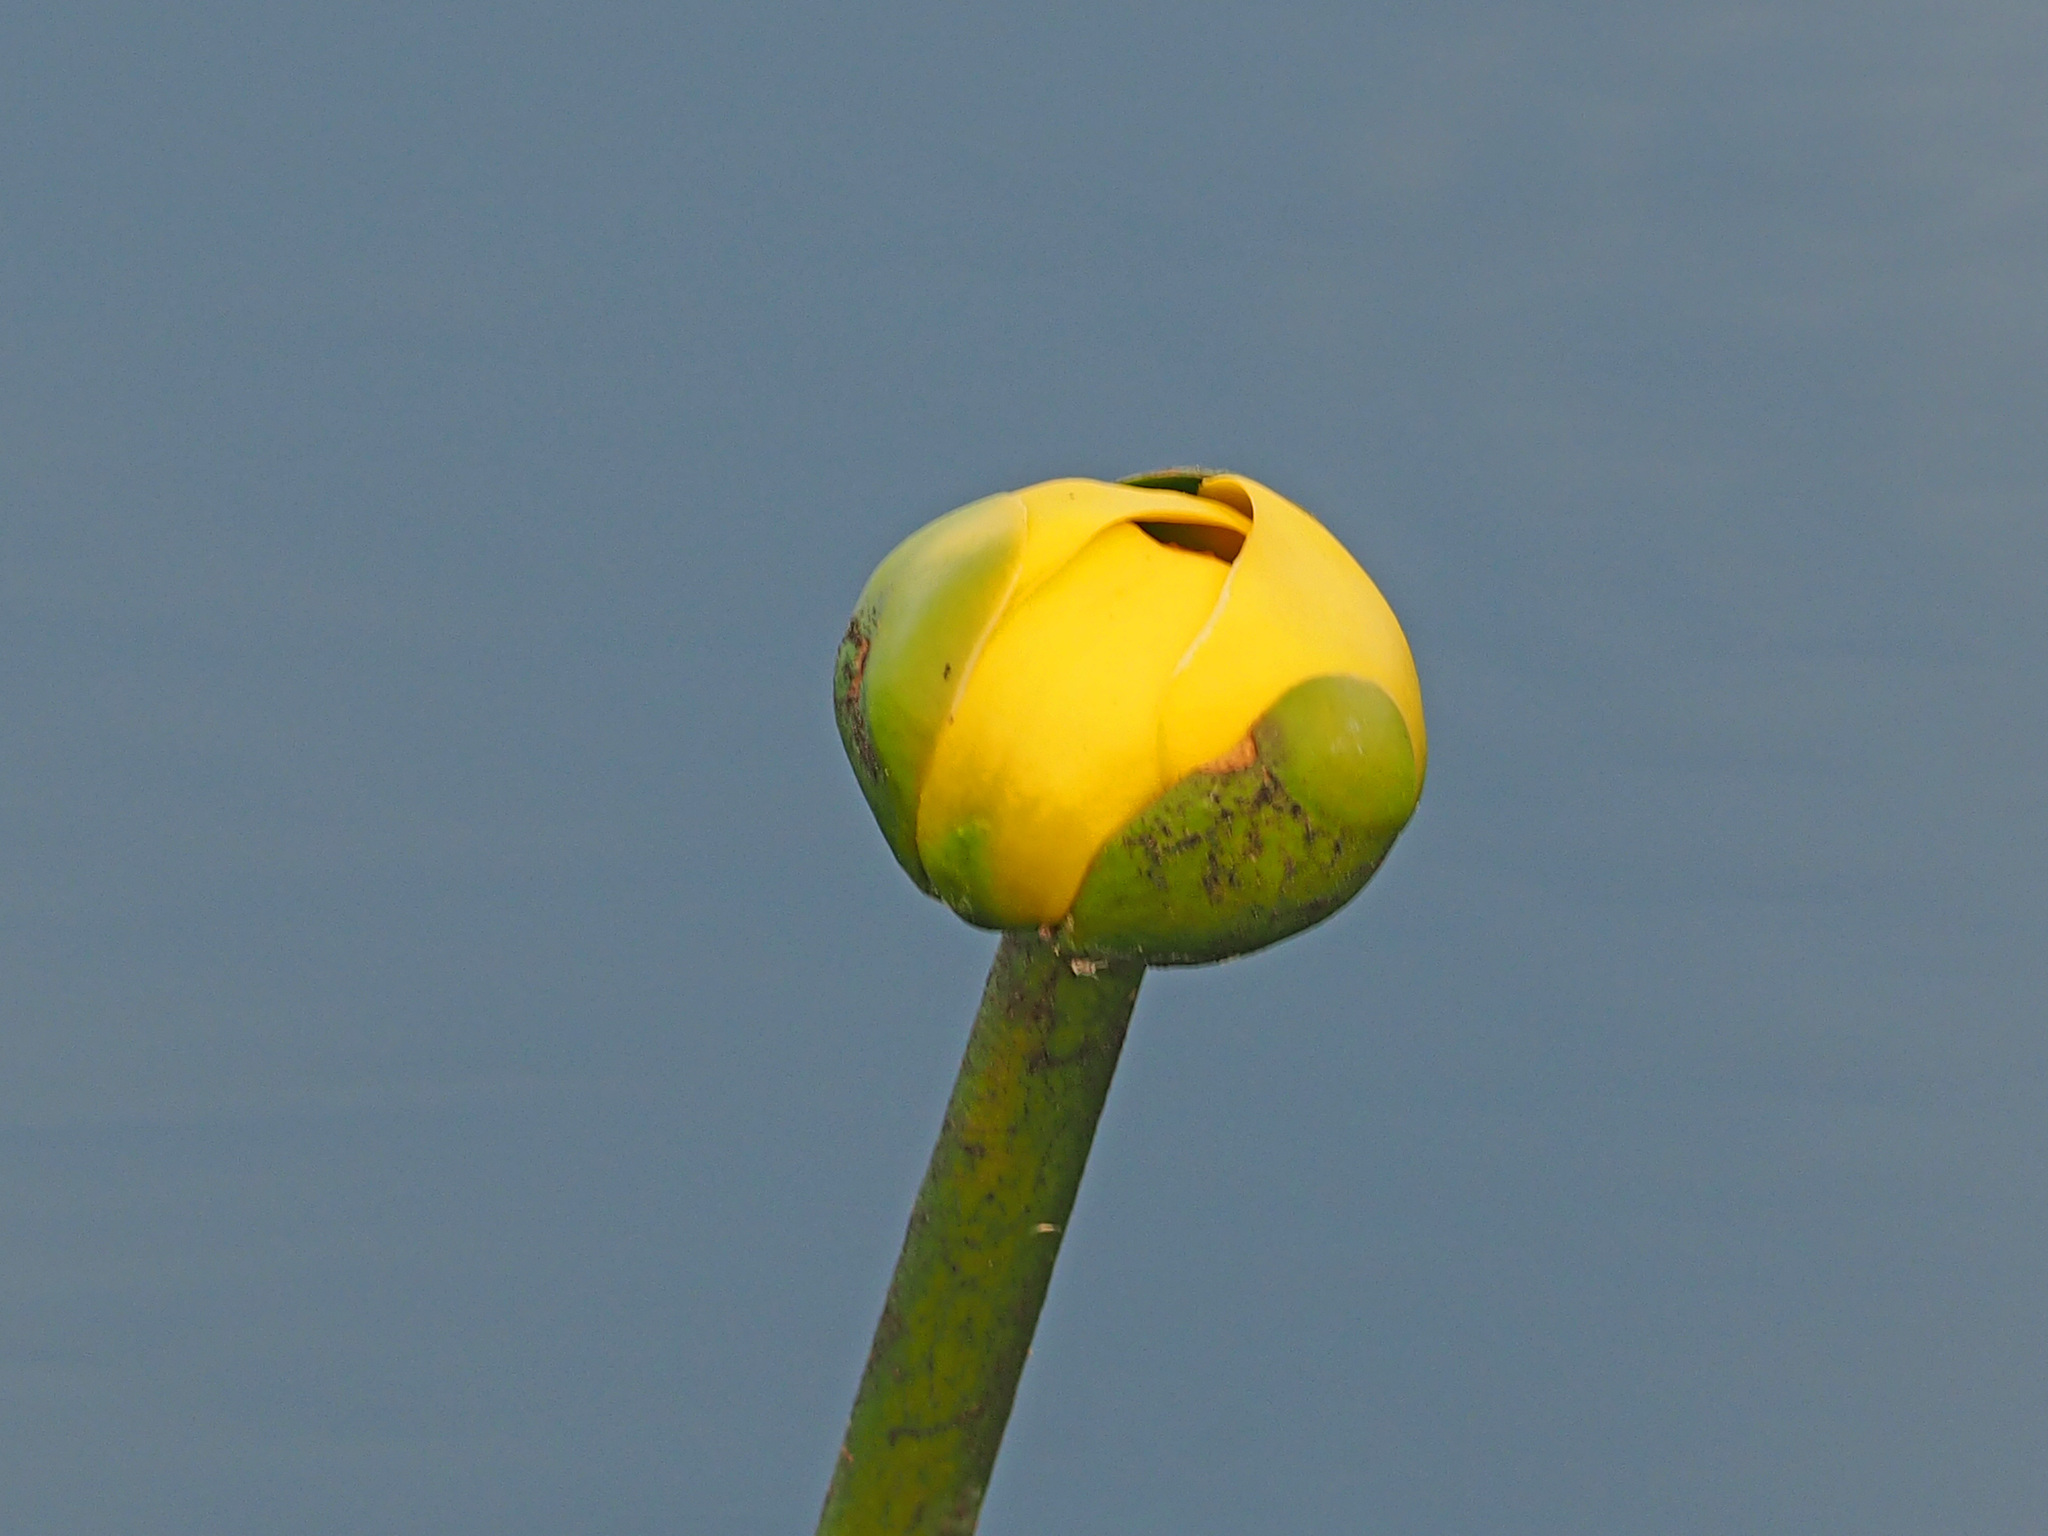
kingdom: Plantae
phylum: Tracheophyta
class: Magnoliopsida
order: Nymphaeales
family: Nymphaeaceae
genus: Nuphar
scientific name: Nuphar advena
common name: Spatter-dock
